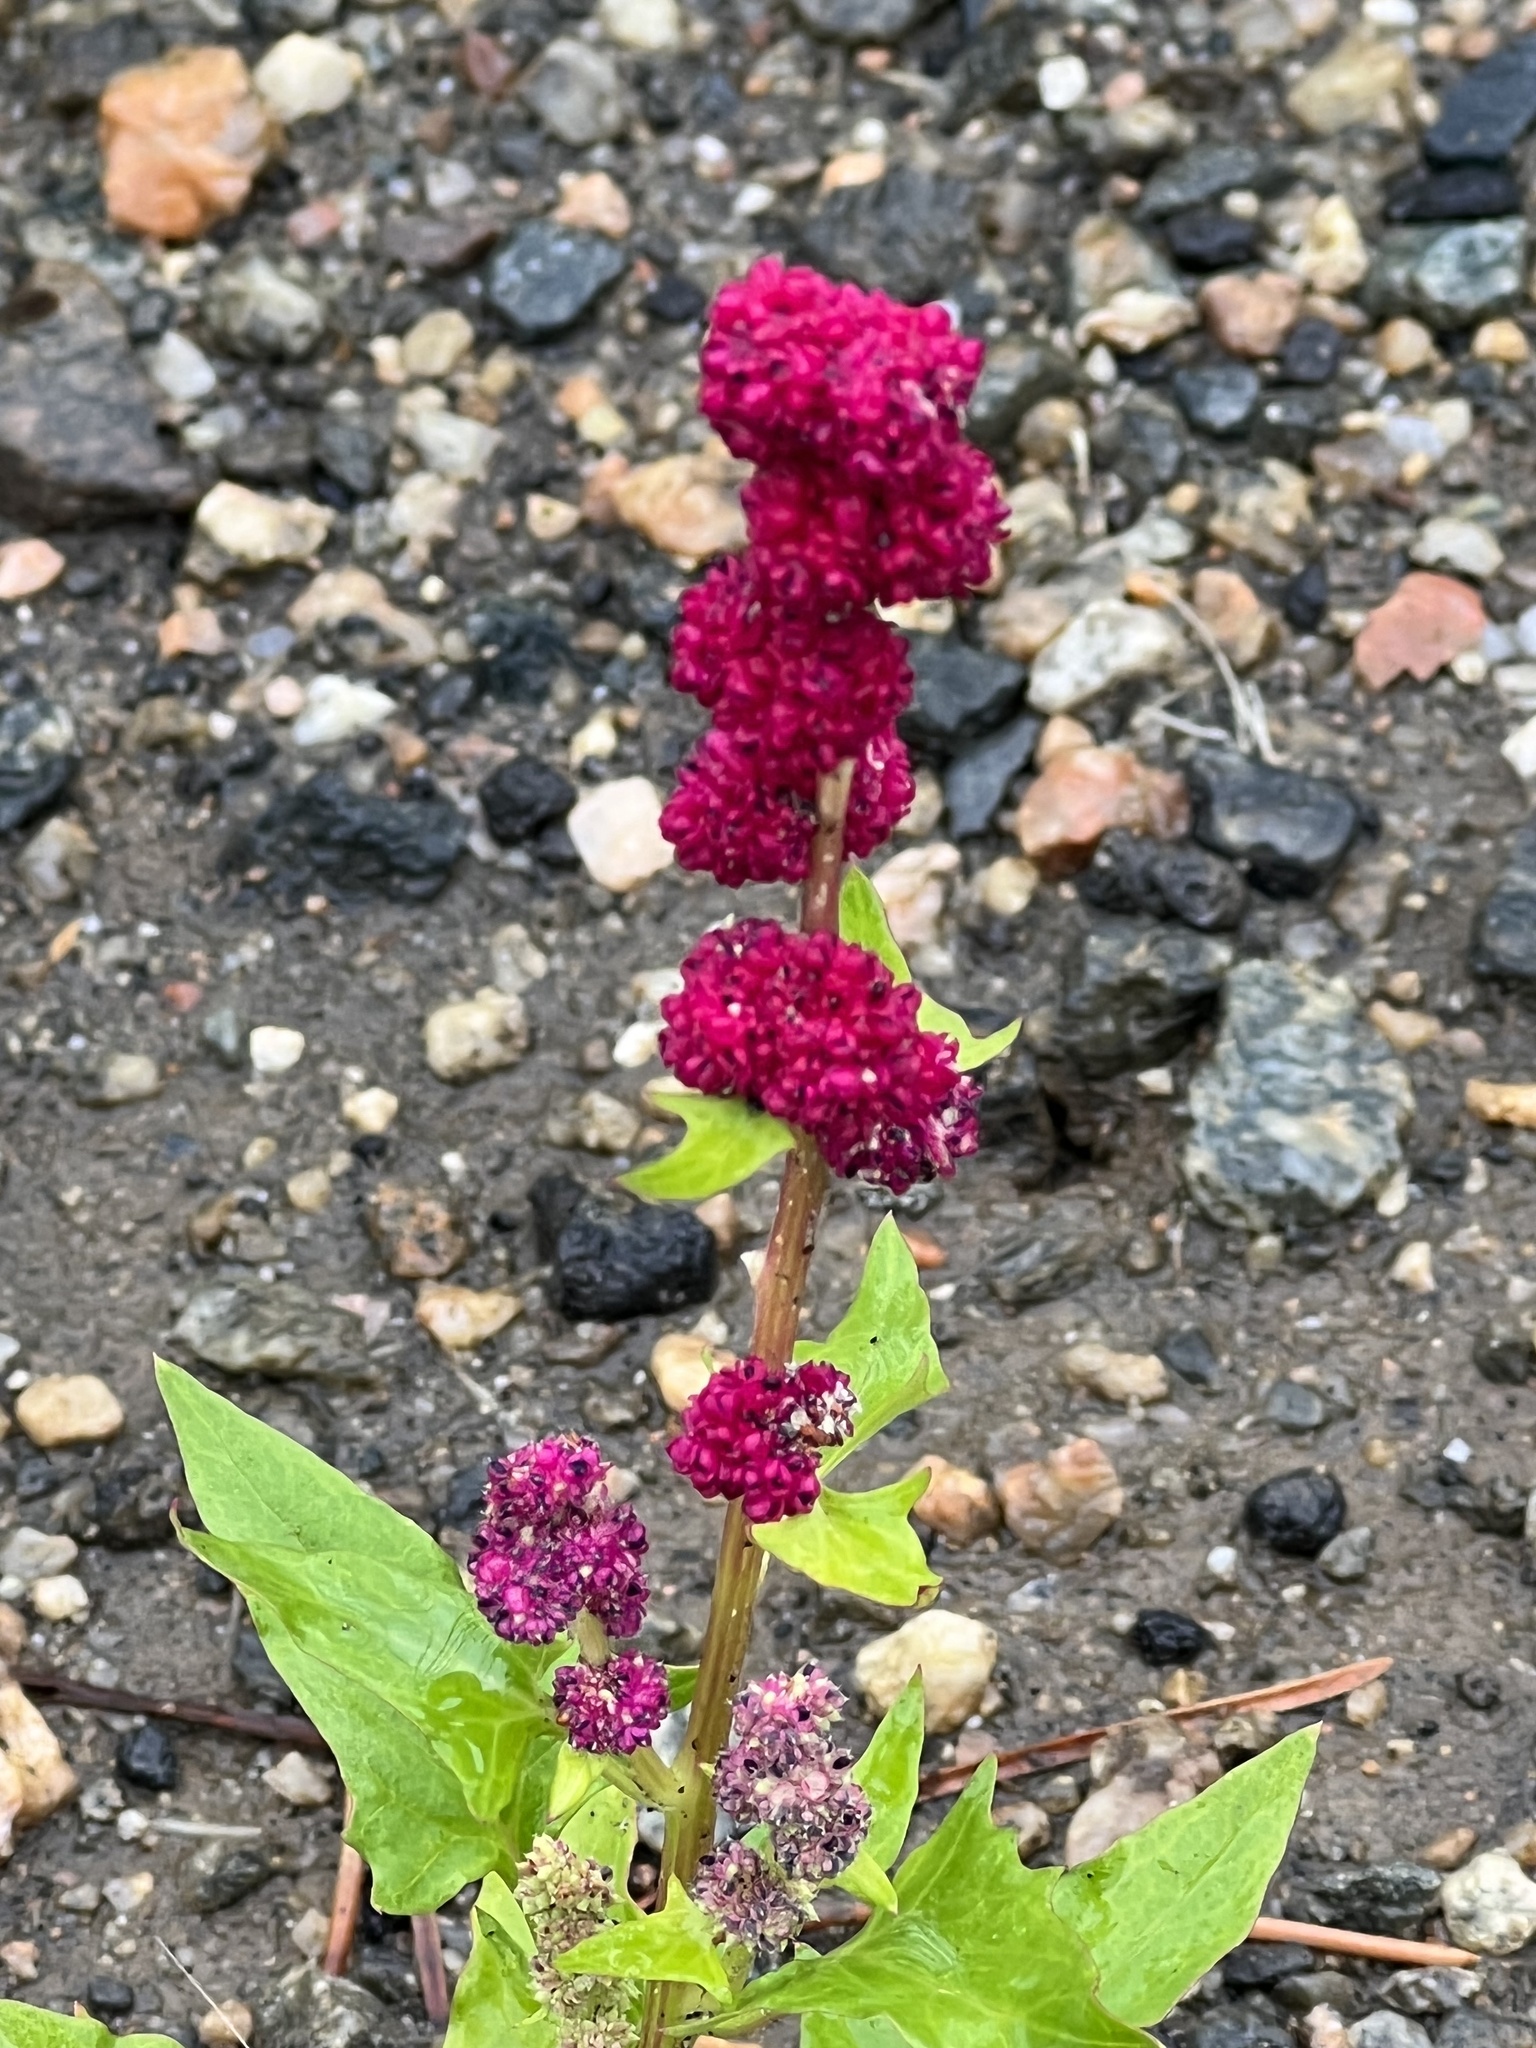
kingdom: Plantae
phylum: Tracheophyta
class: Magnoliopsida
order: Caryophyllales
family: Amaranthaceae
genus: Blitum
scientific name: Blitum capitatum
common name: Strawberry-blight
